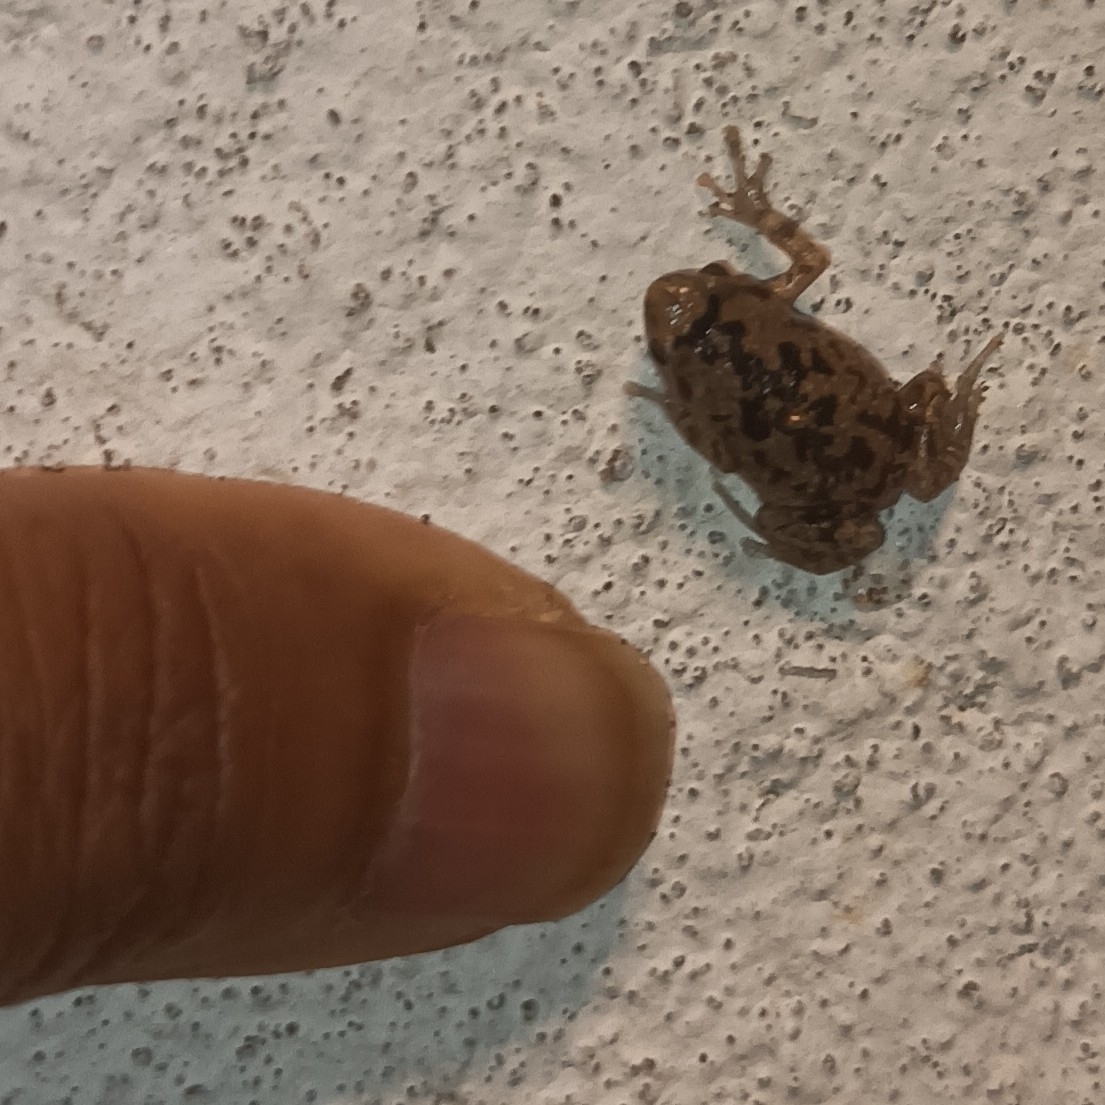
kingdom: Animalia
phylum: Chordata
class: Amphibia
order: Anura
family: Microhylidae
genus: Uperodon
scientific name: Uperodon variegatus
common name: Eluru dot frog
